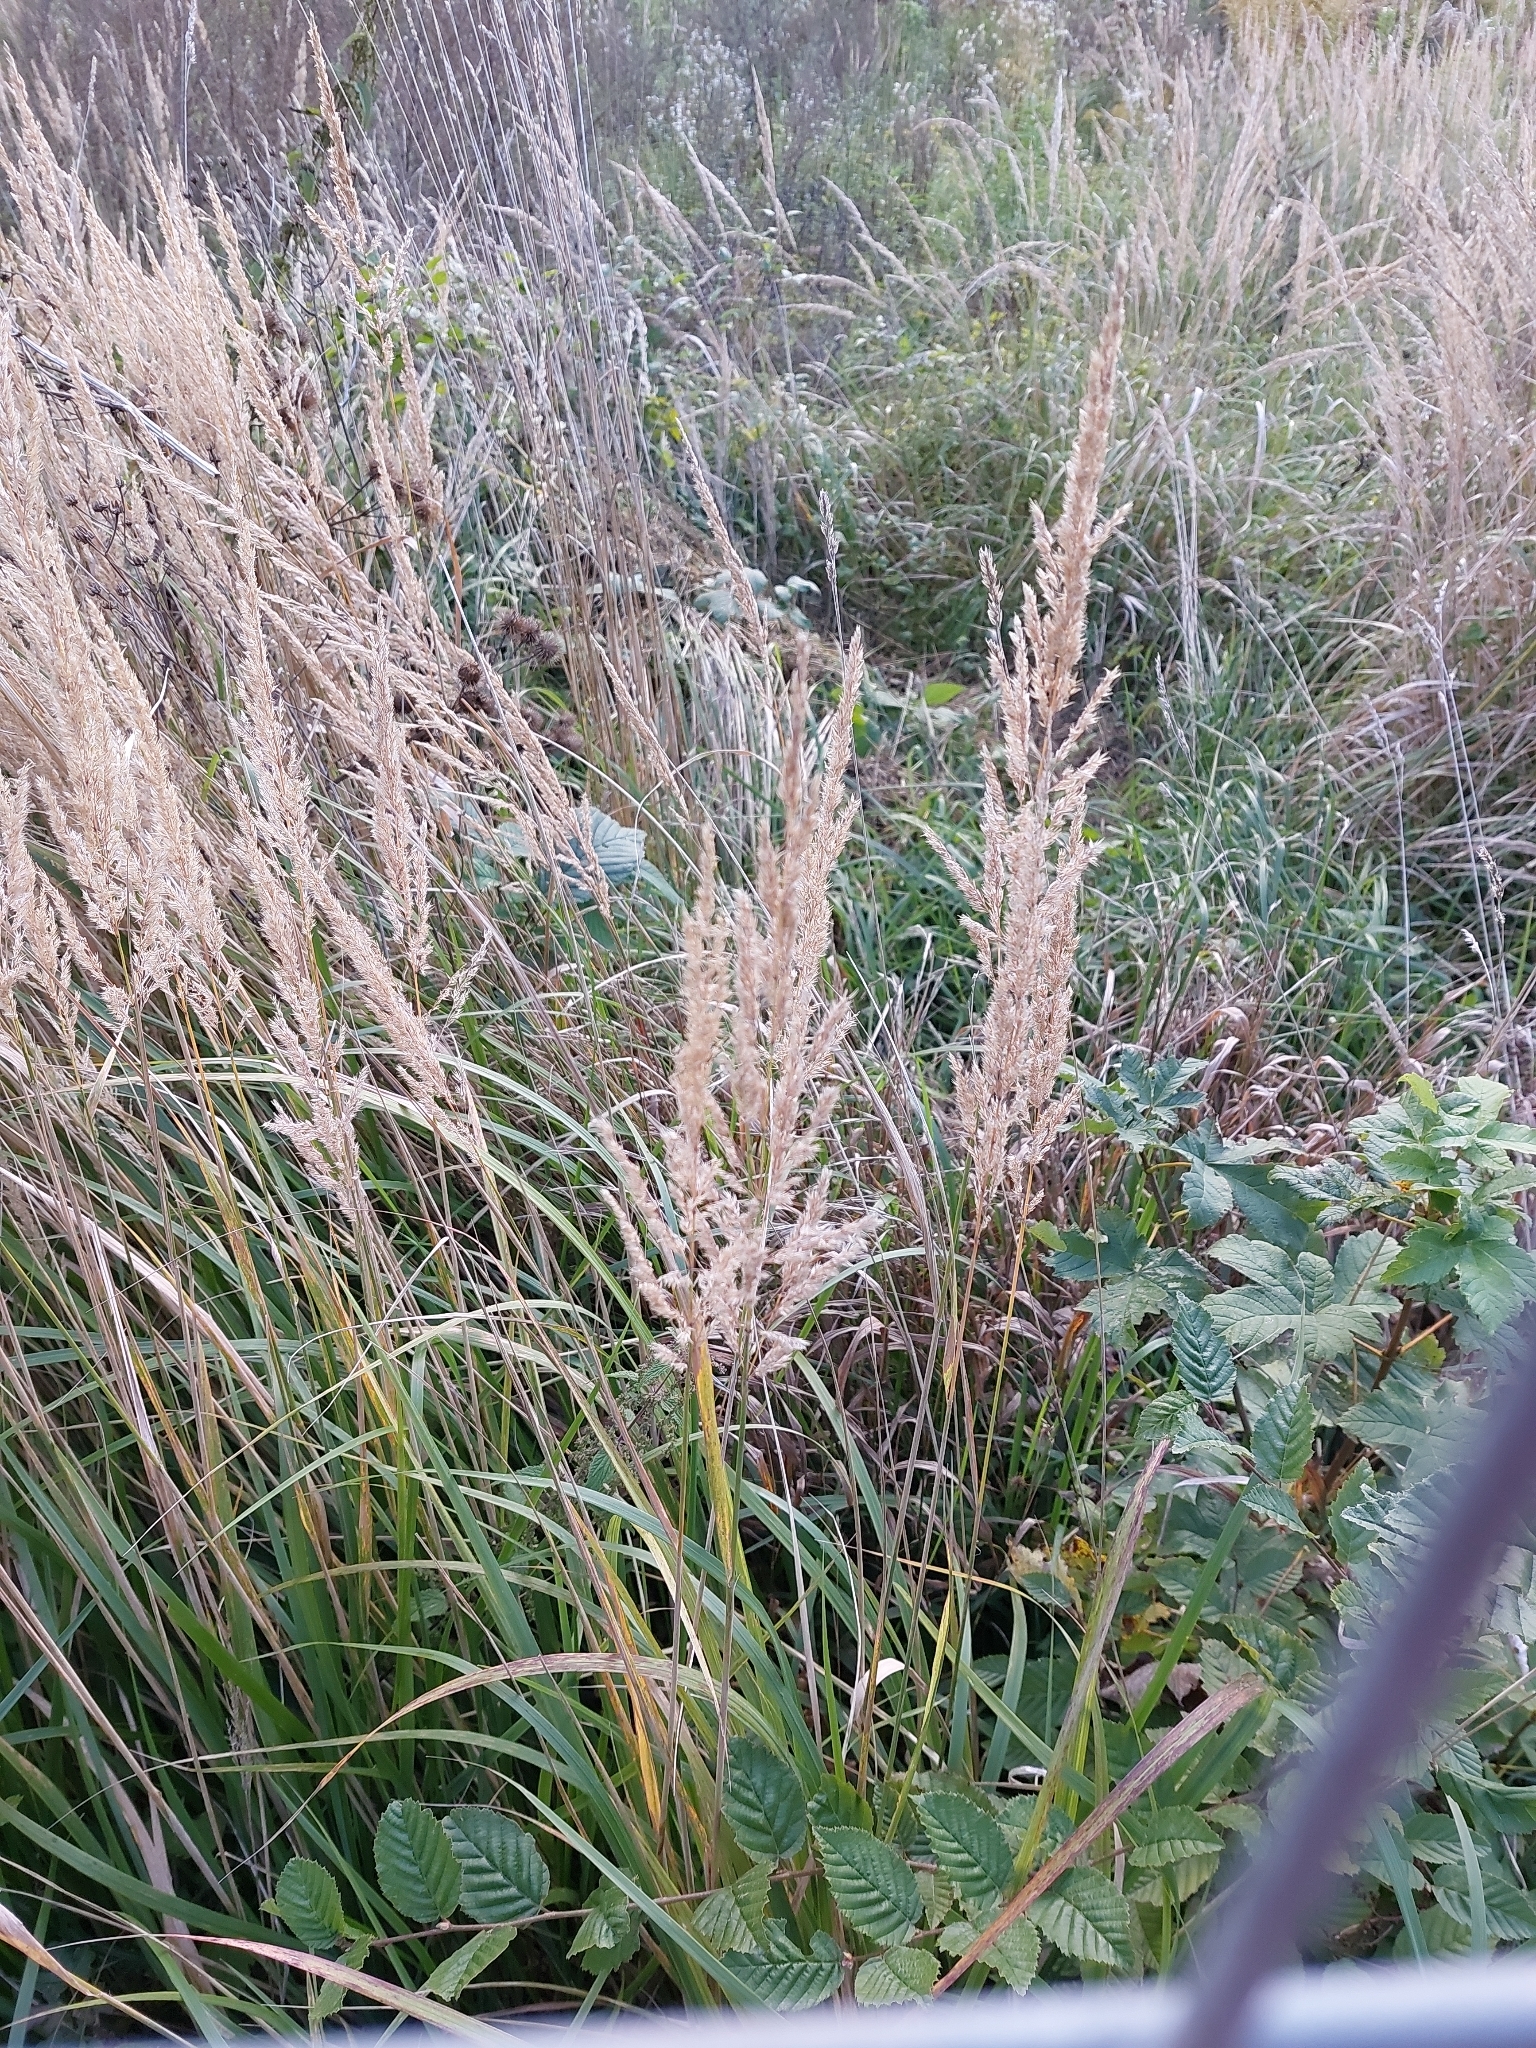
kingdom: Plantae
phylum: Tracheophyta
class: Liliopsida
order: Poales
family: Poaceae
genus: Calamagrostis
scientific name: Calamagrostis epigejos
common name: Wood small-reed
